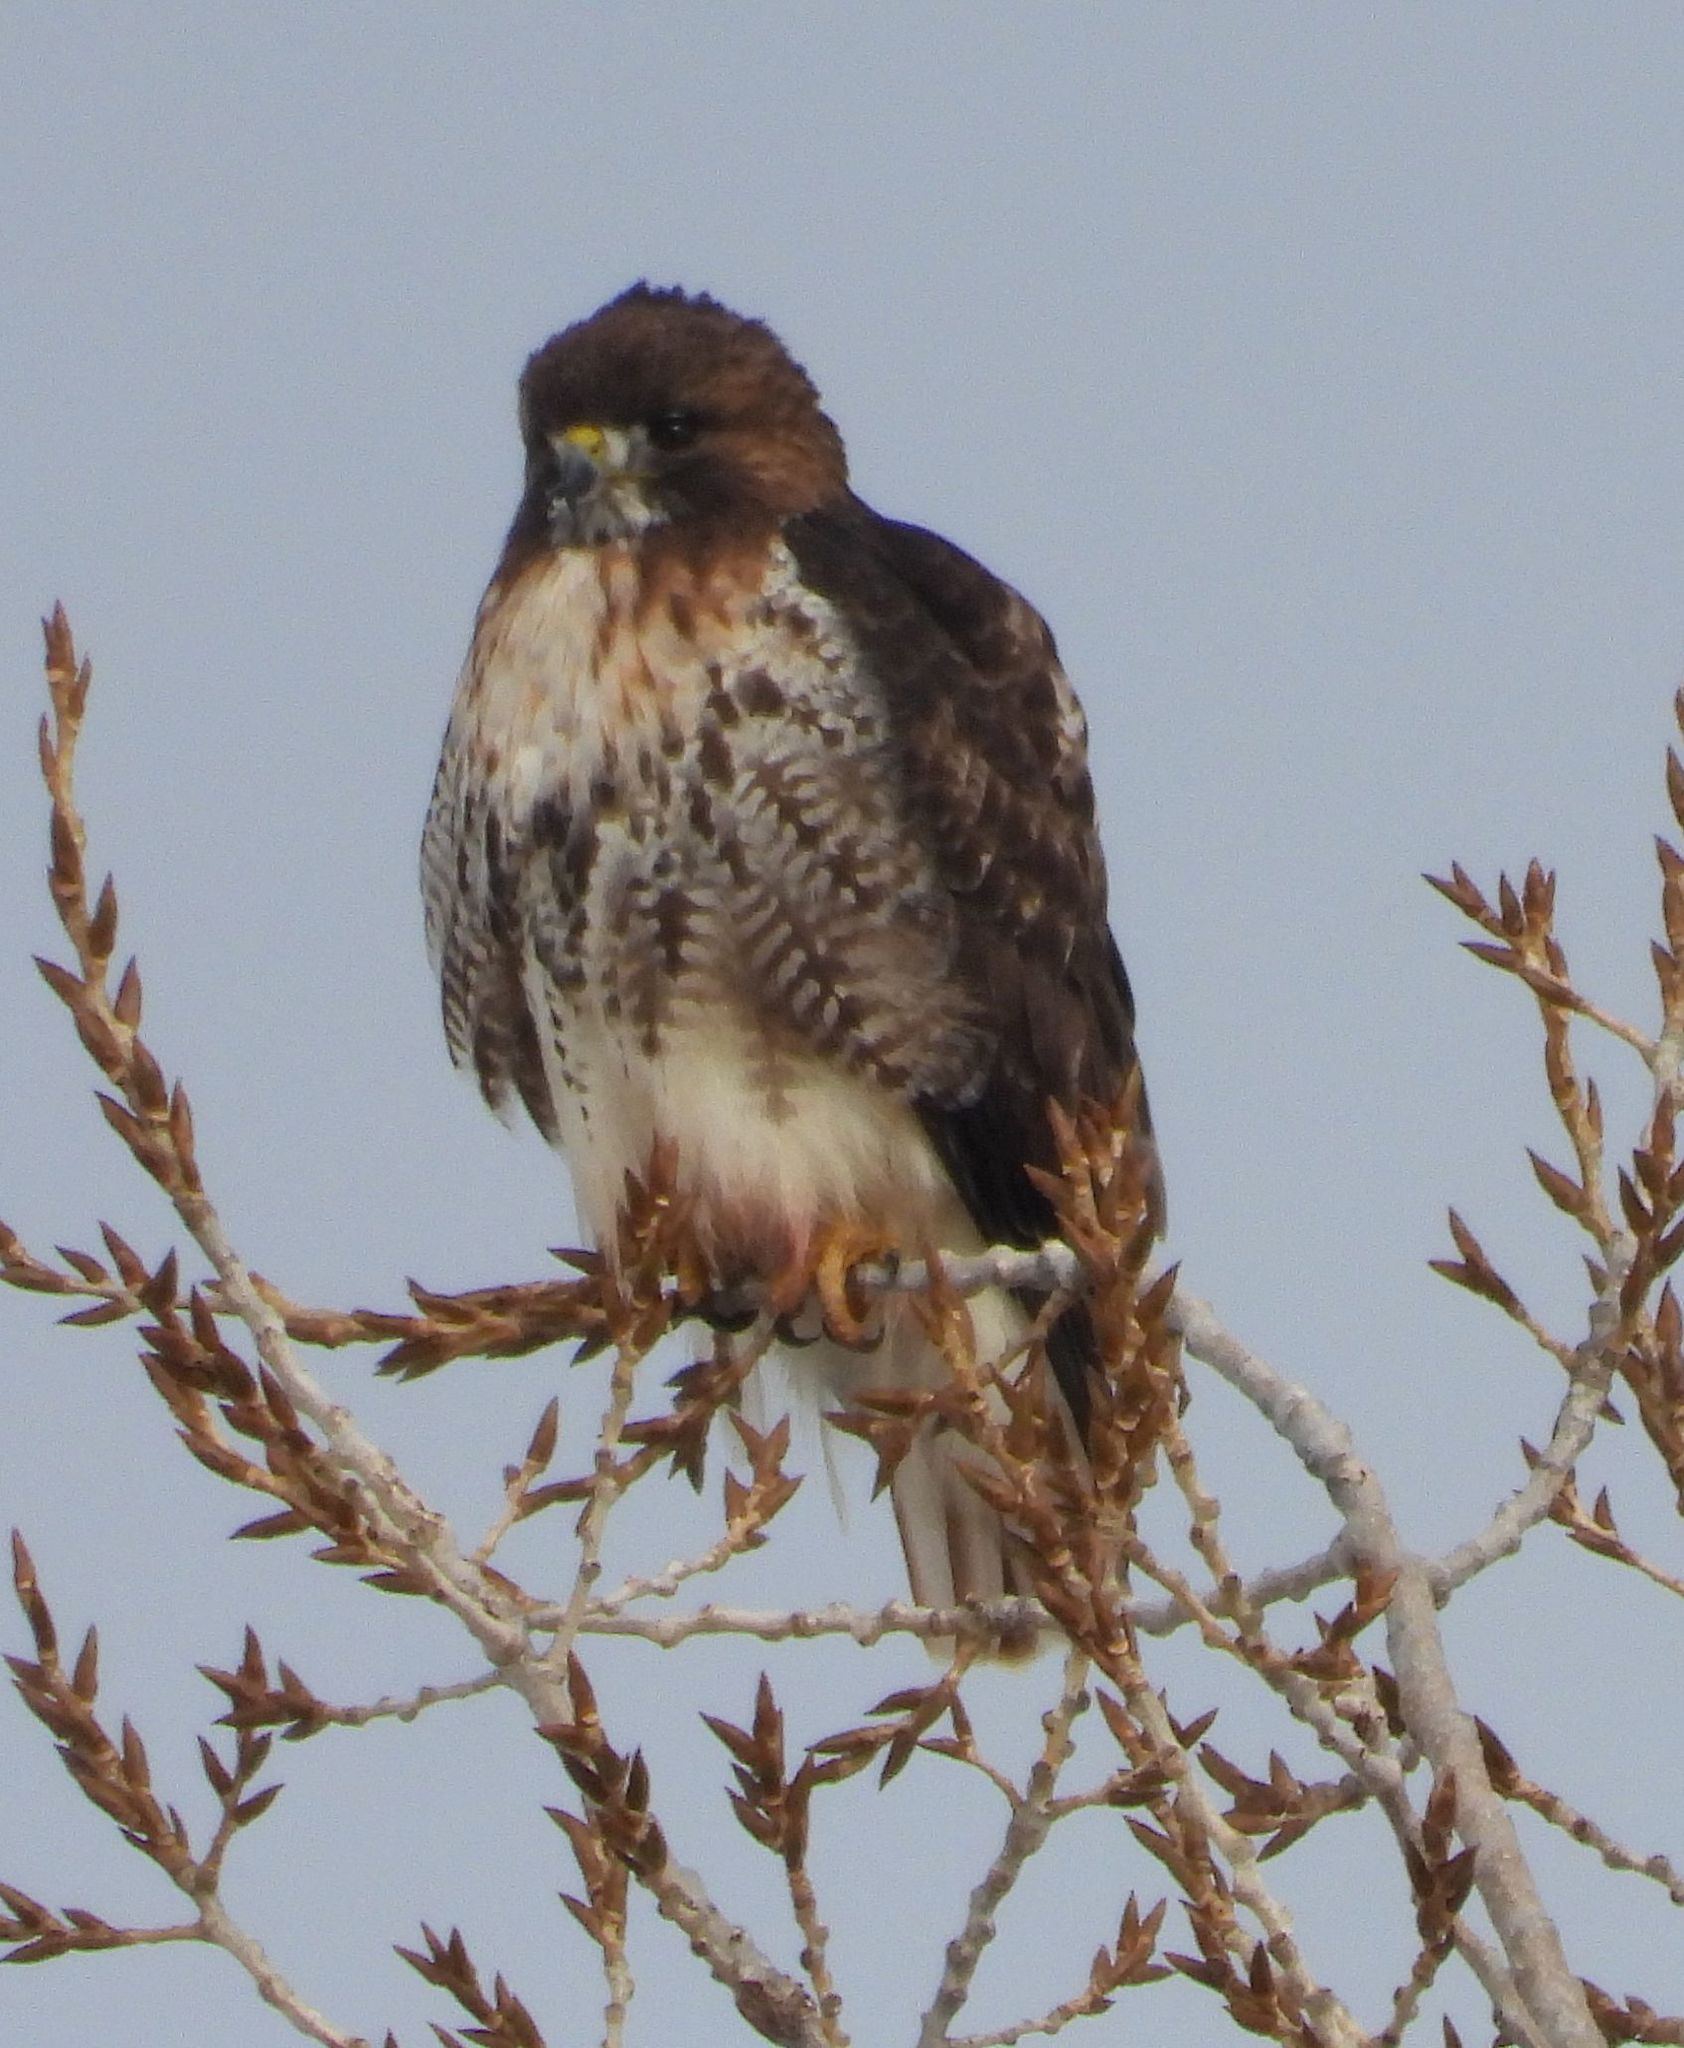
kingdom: Animalia
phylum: Chordata
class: Aves
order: Accipitriformes
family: Accipitridae
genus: Buteo
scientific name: Buteo jamaicensis
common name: Red-tailed hawk
